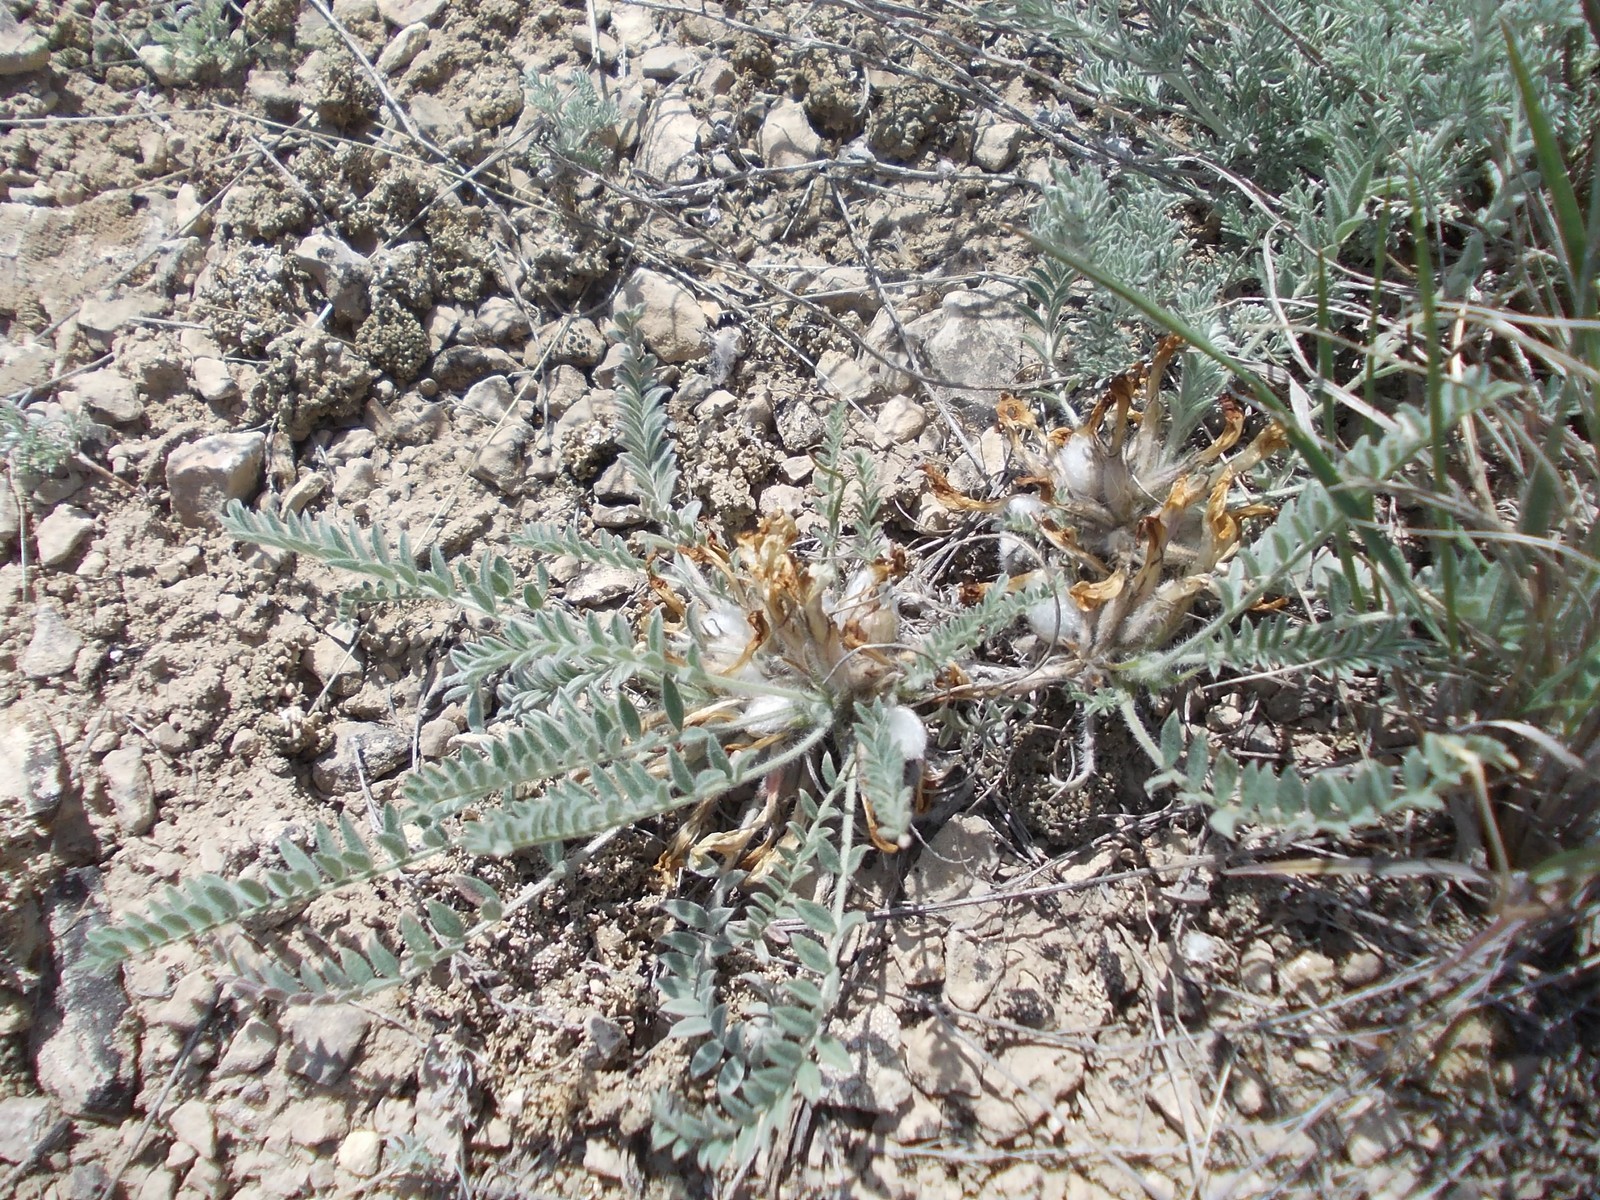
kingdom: Plantae
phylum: Tracheophyta
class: Magnoliopsida
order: Fabales
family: Fabaceae
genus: Astragalus
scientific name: Astragalus testiculatus
